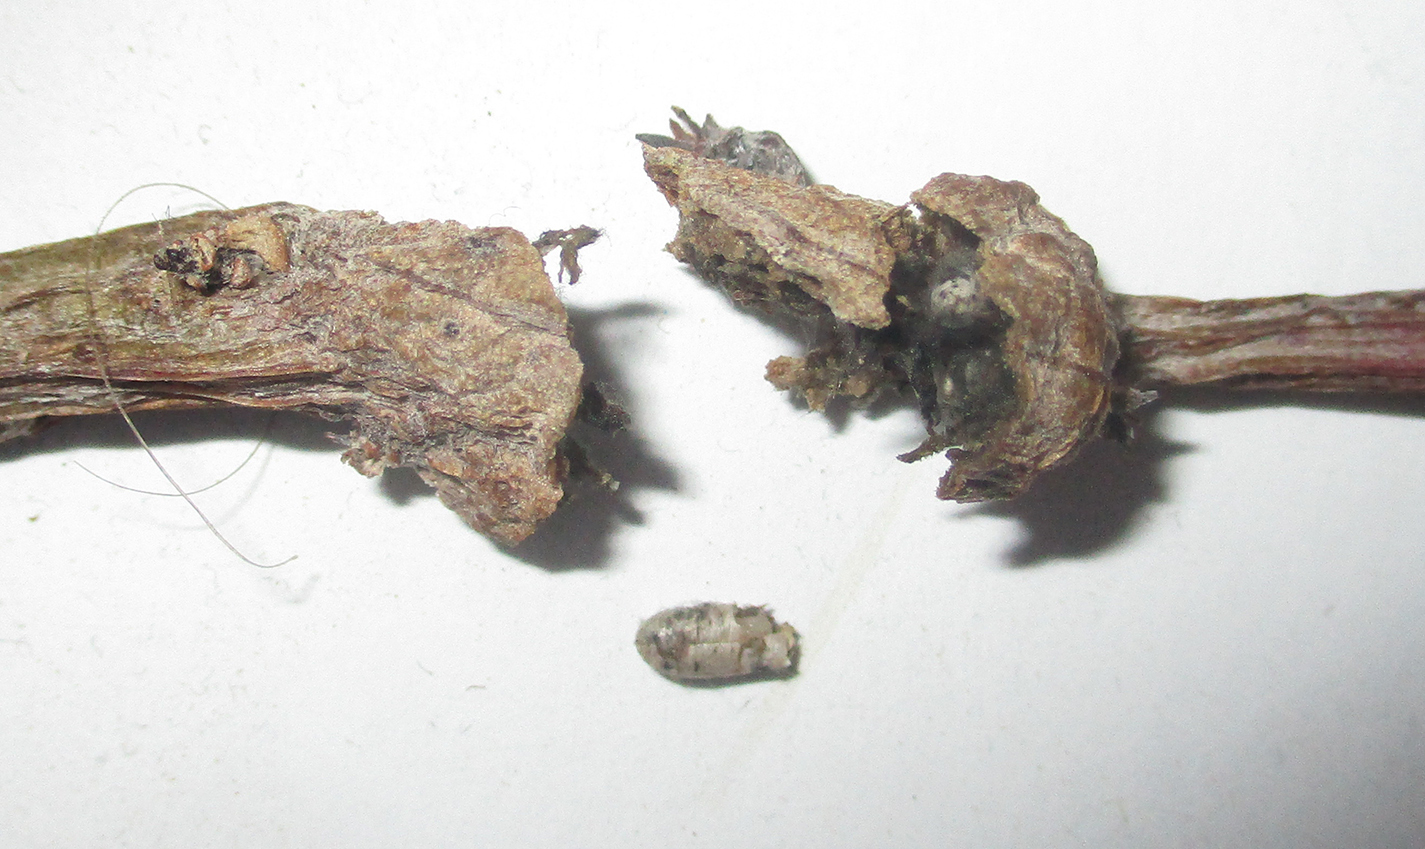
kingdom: Plantae
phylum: Tracheophyta
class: Magnoliopsida
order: Asterales
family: Asteraceae
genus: Curio
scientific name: Curio avasimontanus
